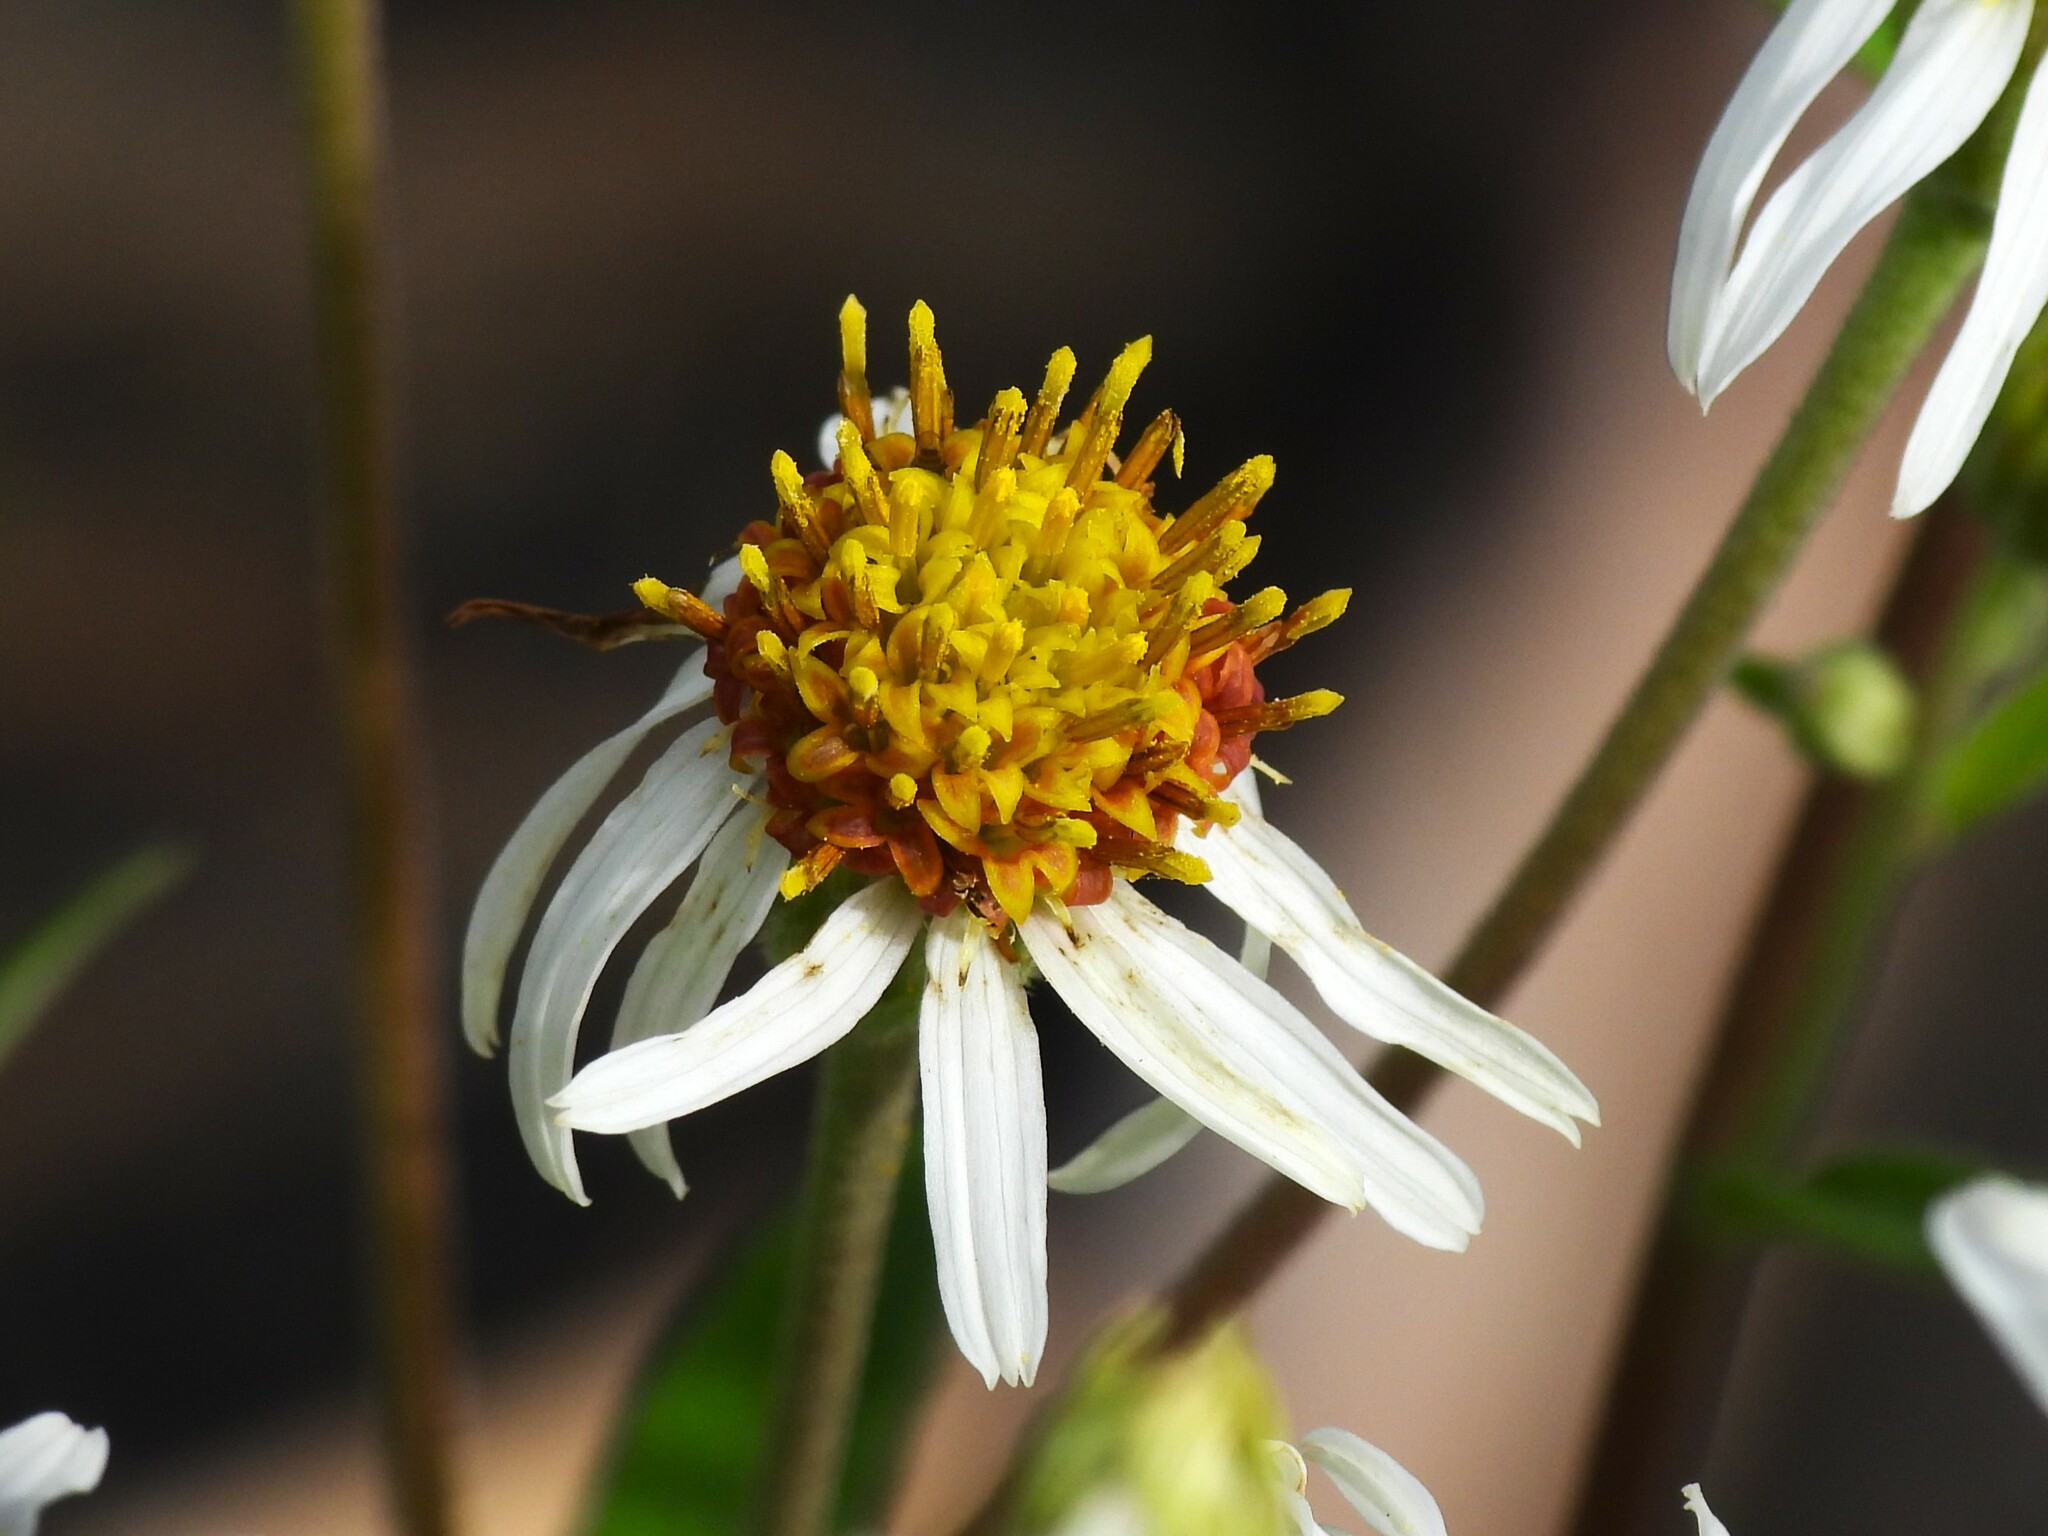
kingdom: Plantae
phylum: Tracheophyta
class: Magnoliopsida
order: Asterales
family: Asteraceae
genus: Oclemena
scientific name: Oclemena reticulata
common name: Pinebarren aster
